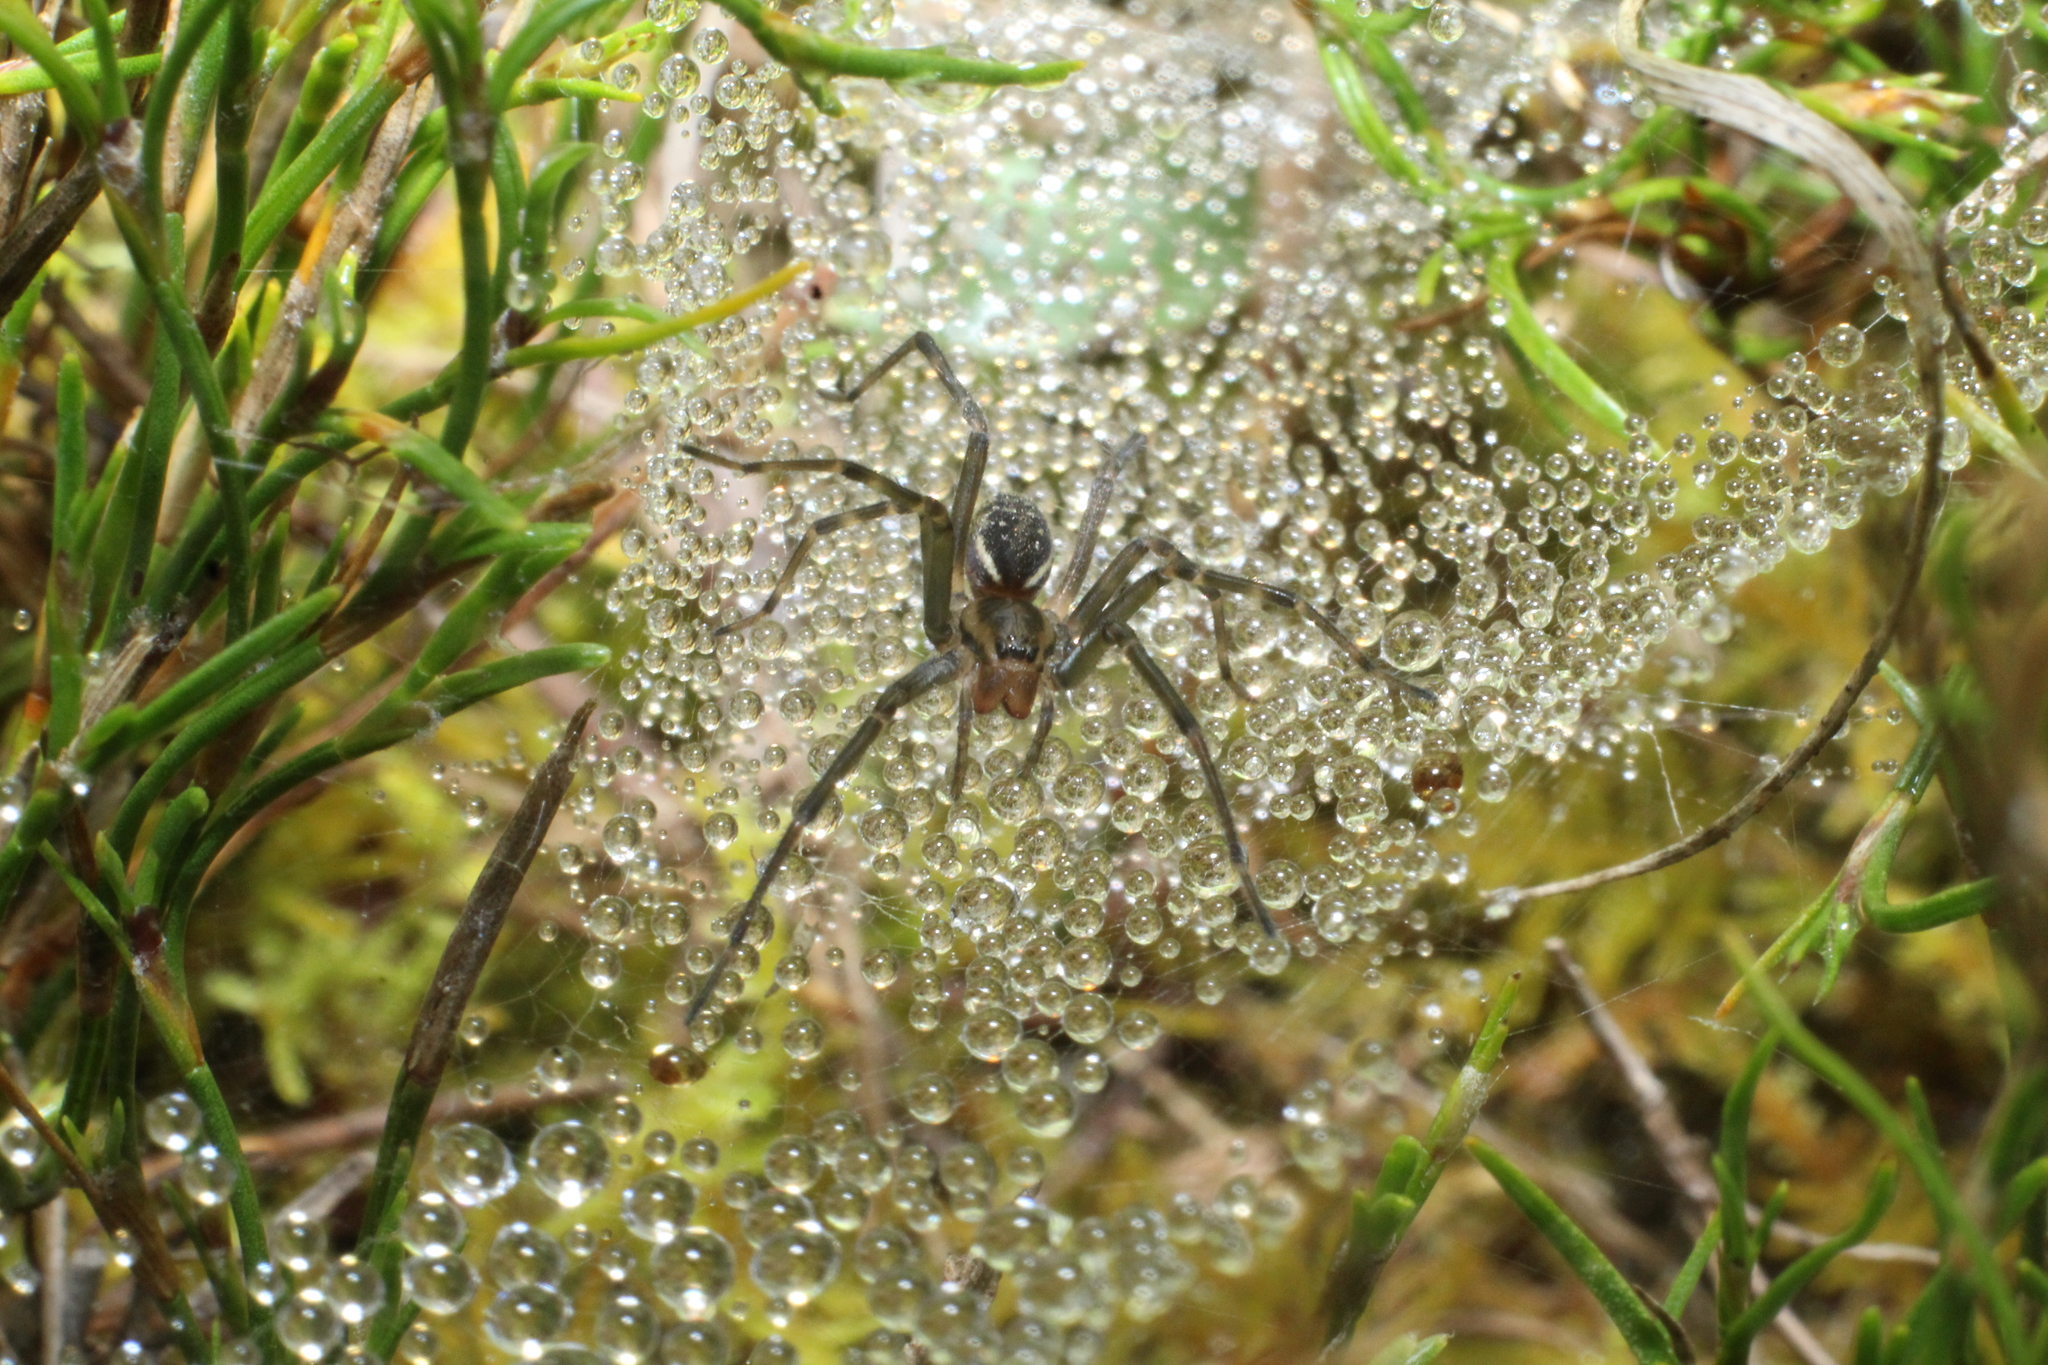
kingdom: Animalia
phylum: Arthropoda
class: Arachnida
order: Araneae
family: Desidae
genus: Corasoides
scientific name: Corasoides australis
